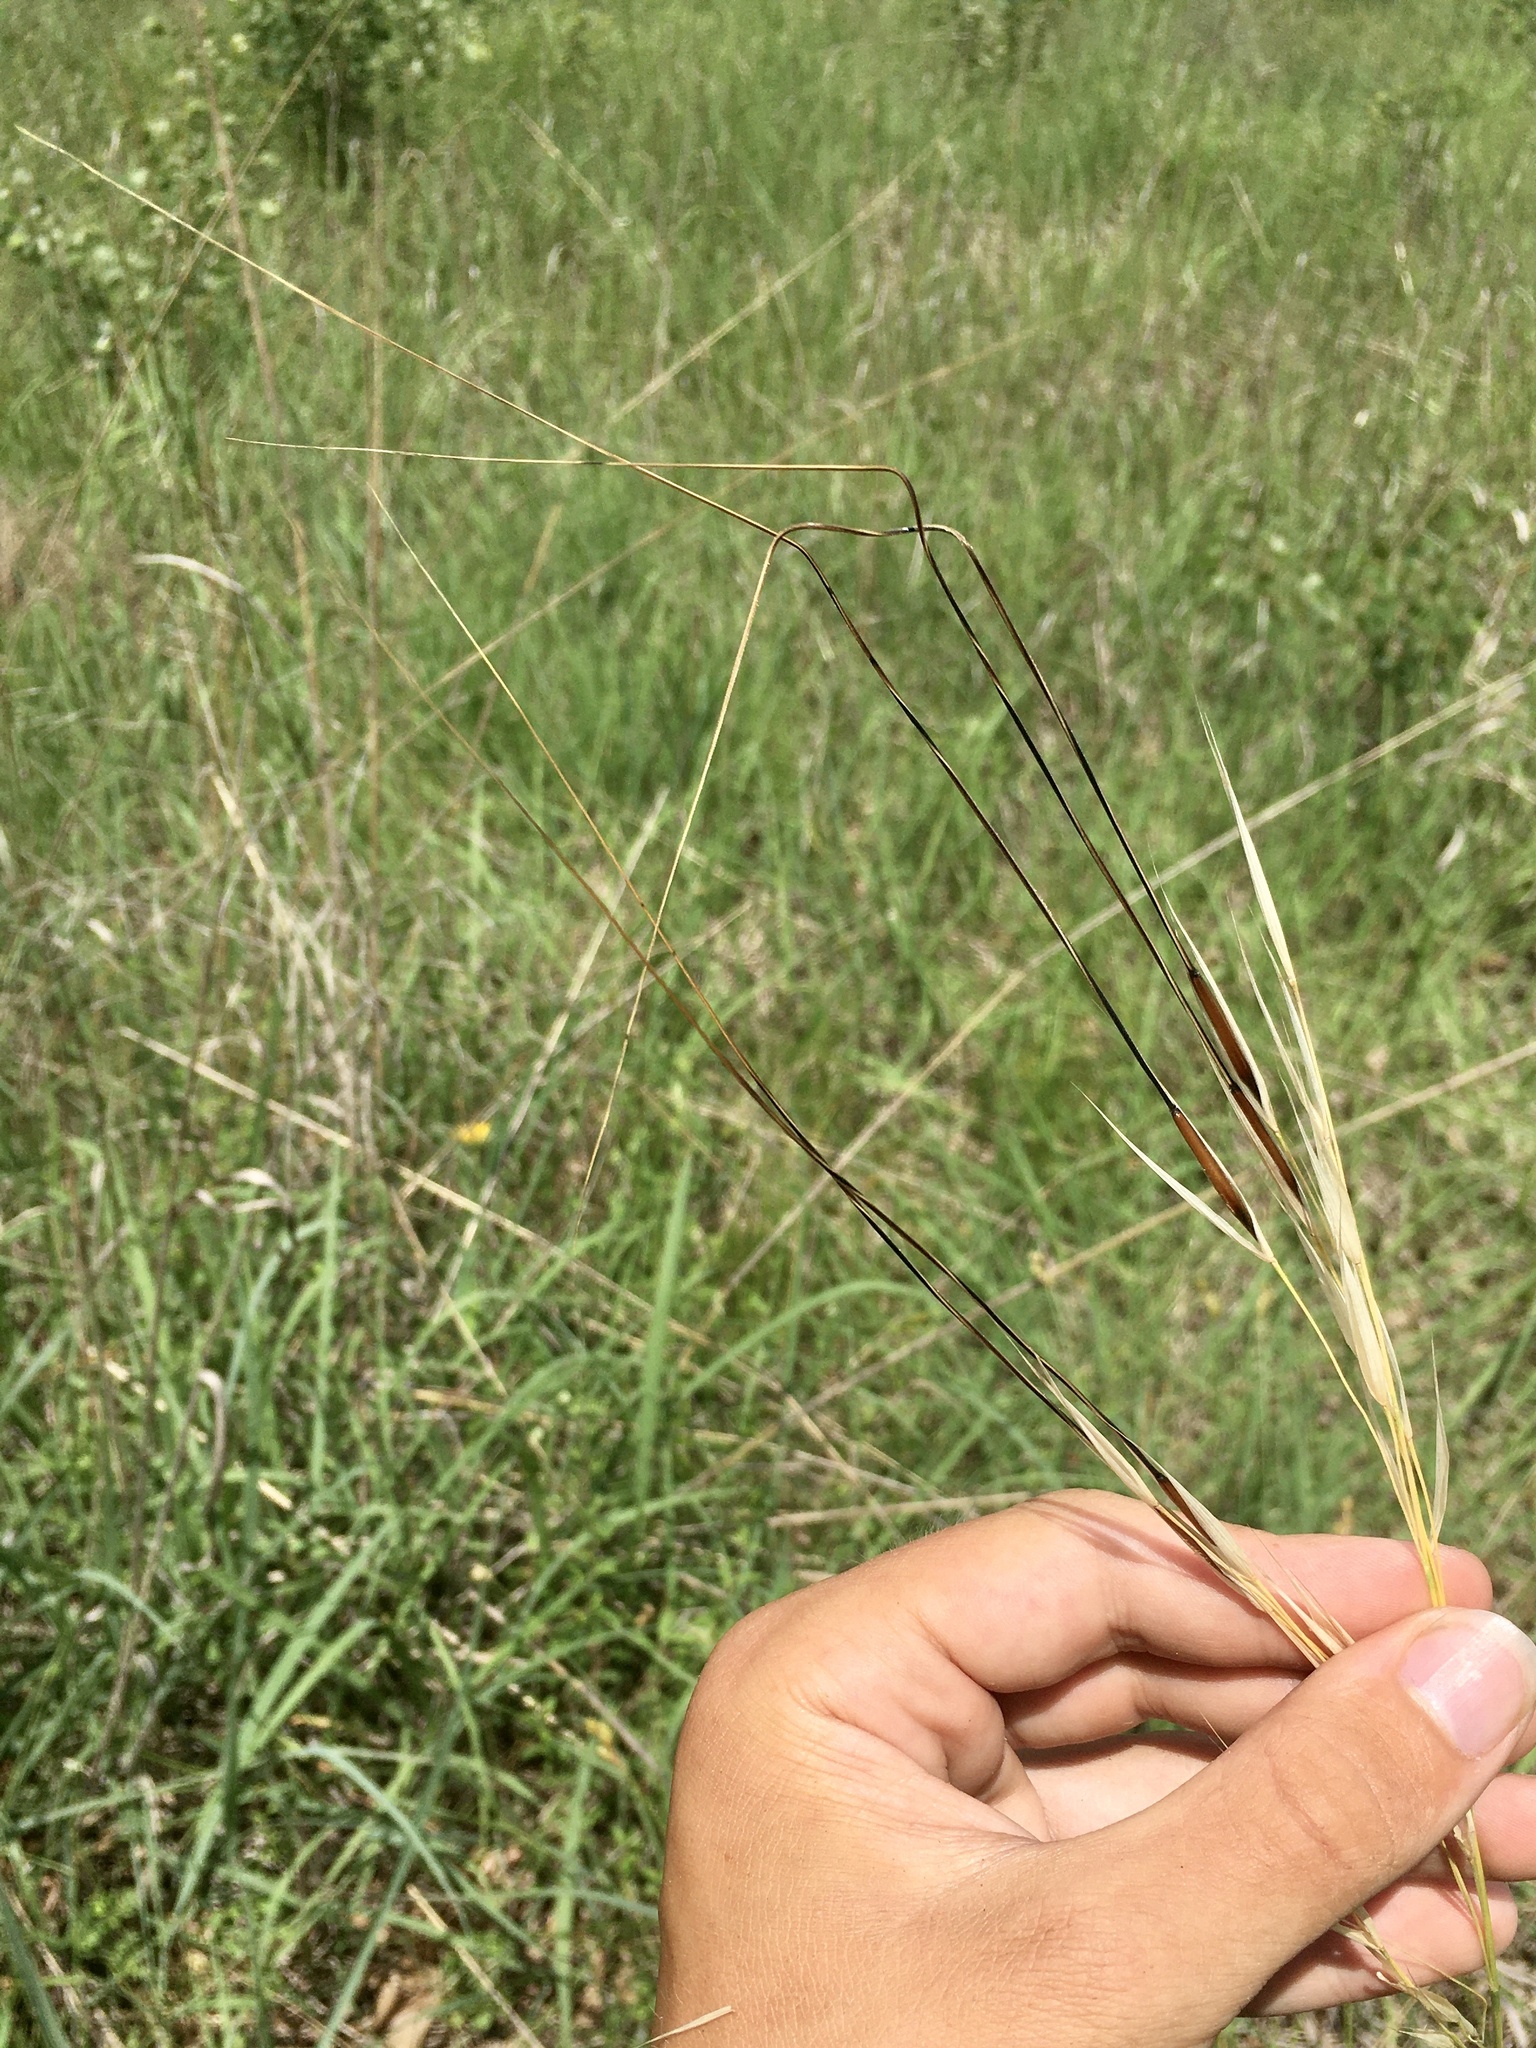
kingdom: Plantae
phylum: Tracheophyta
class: Liliopsida
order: Poales
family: Poaceae
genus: Hesperostipa
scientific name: Hesperostipa spartea
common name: Porcupine grass
